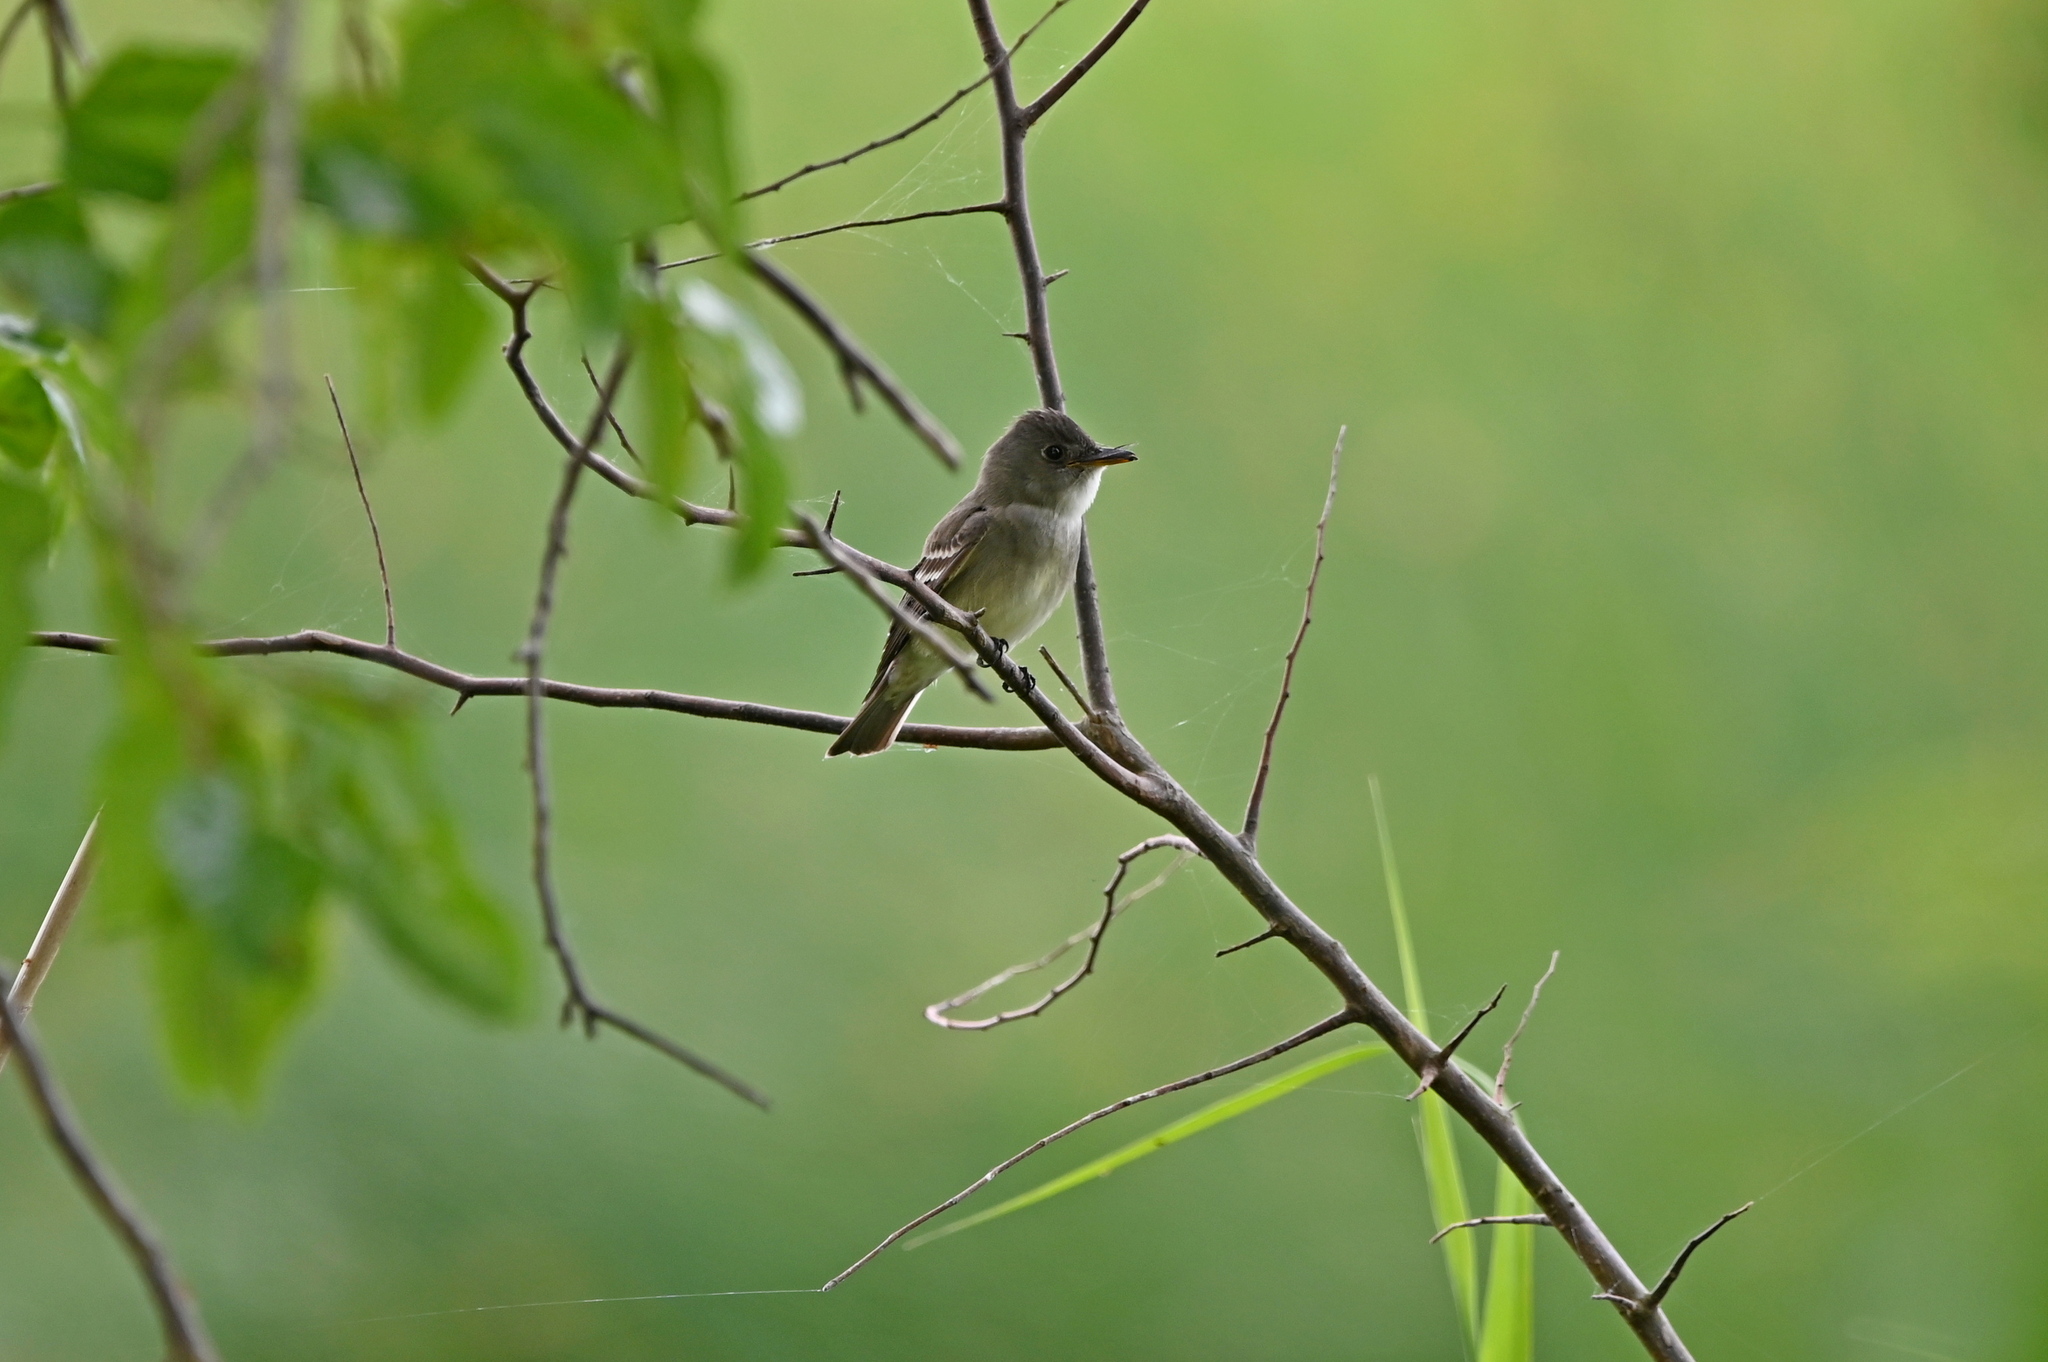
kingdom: Animalia
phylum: Chordata
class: Aves
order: Passeriformes
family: Tyrannidae
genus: Contopus
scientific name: Contopus virens
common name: Eastern wood-pewee
